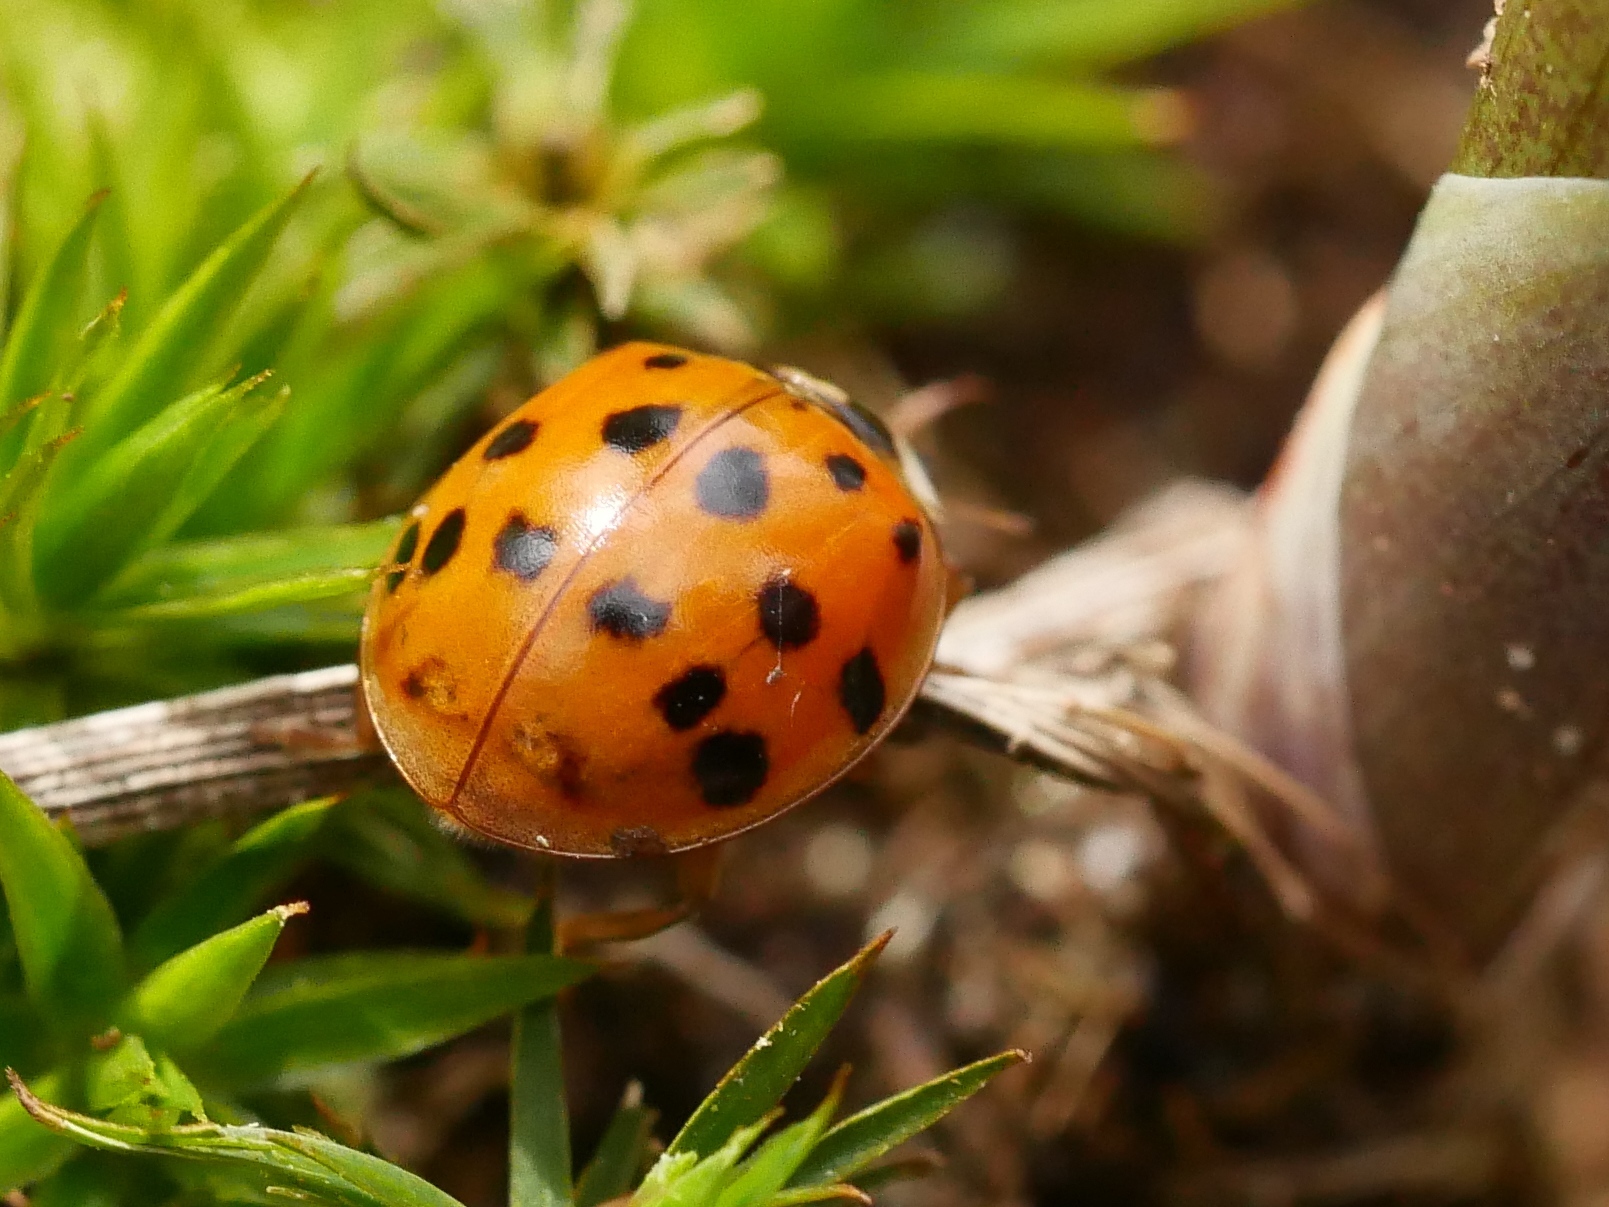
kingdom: Animalia
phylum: Arthropoda
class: Insecta
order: Coleoptera
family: Coccinellidae
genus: Harmonia
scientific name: Harmonia axyridis
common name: Harlequin ladybird
